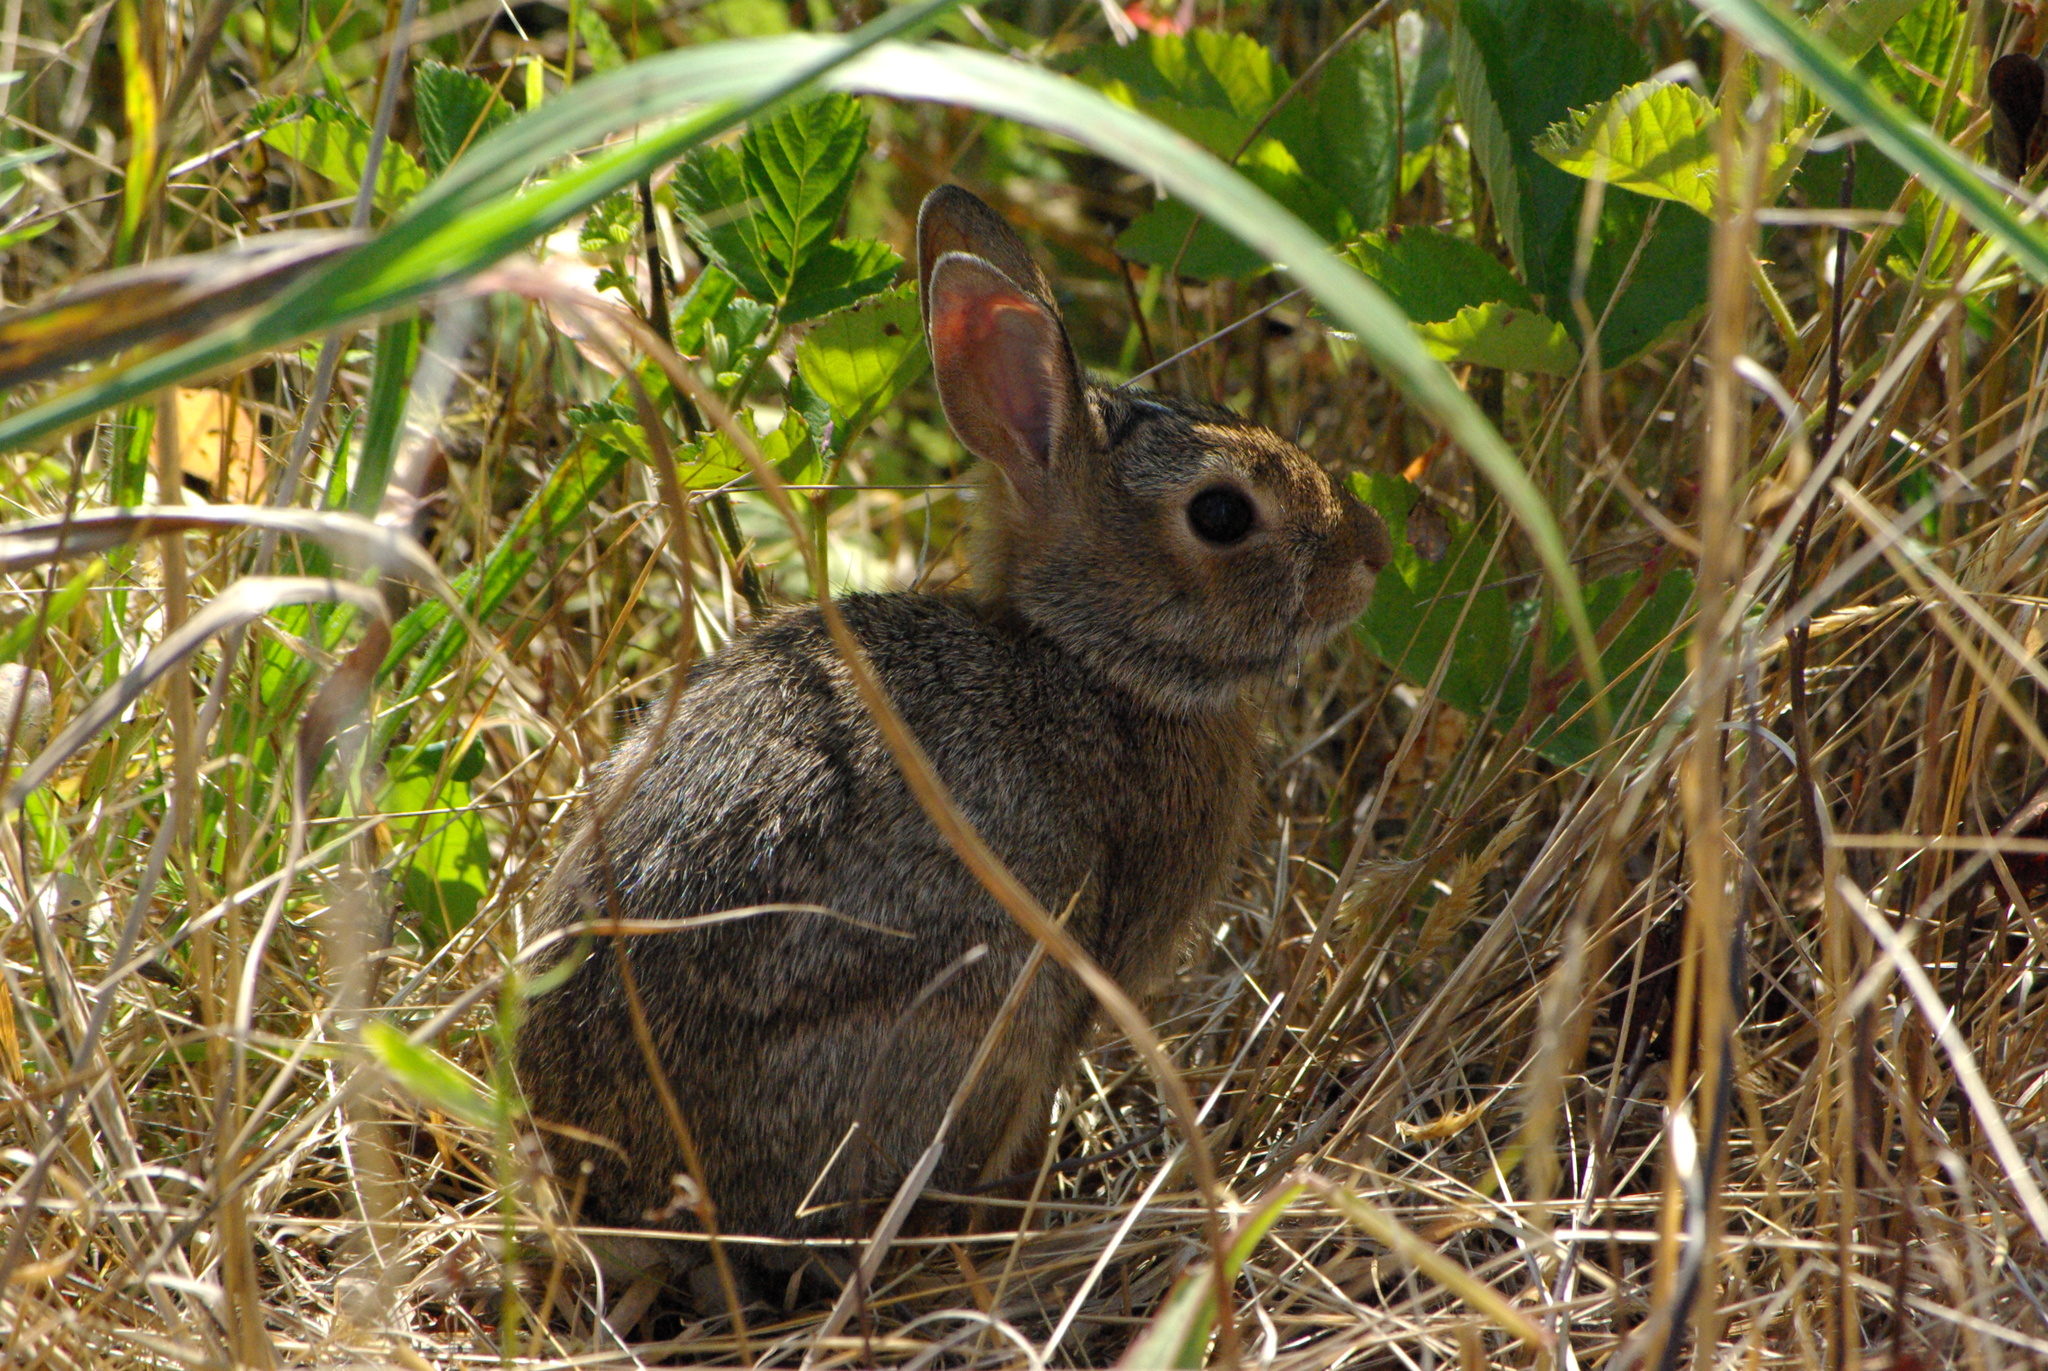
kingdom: Animalia
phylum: Chordata
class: Mammalia
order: Lagomorpha
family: Leporidae
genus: Sylvilagus
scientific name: Sylvilagus floridanus
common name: Eastern cottontail
